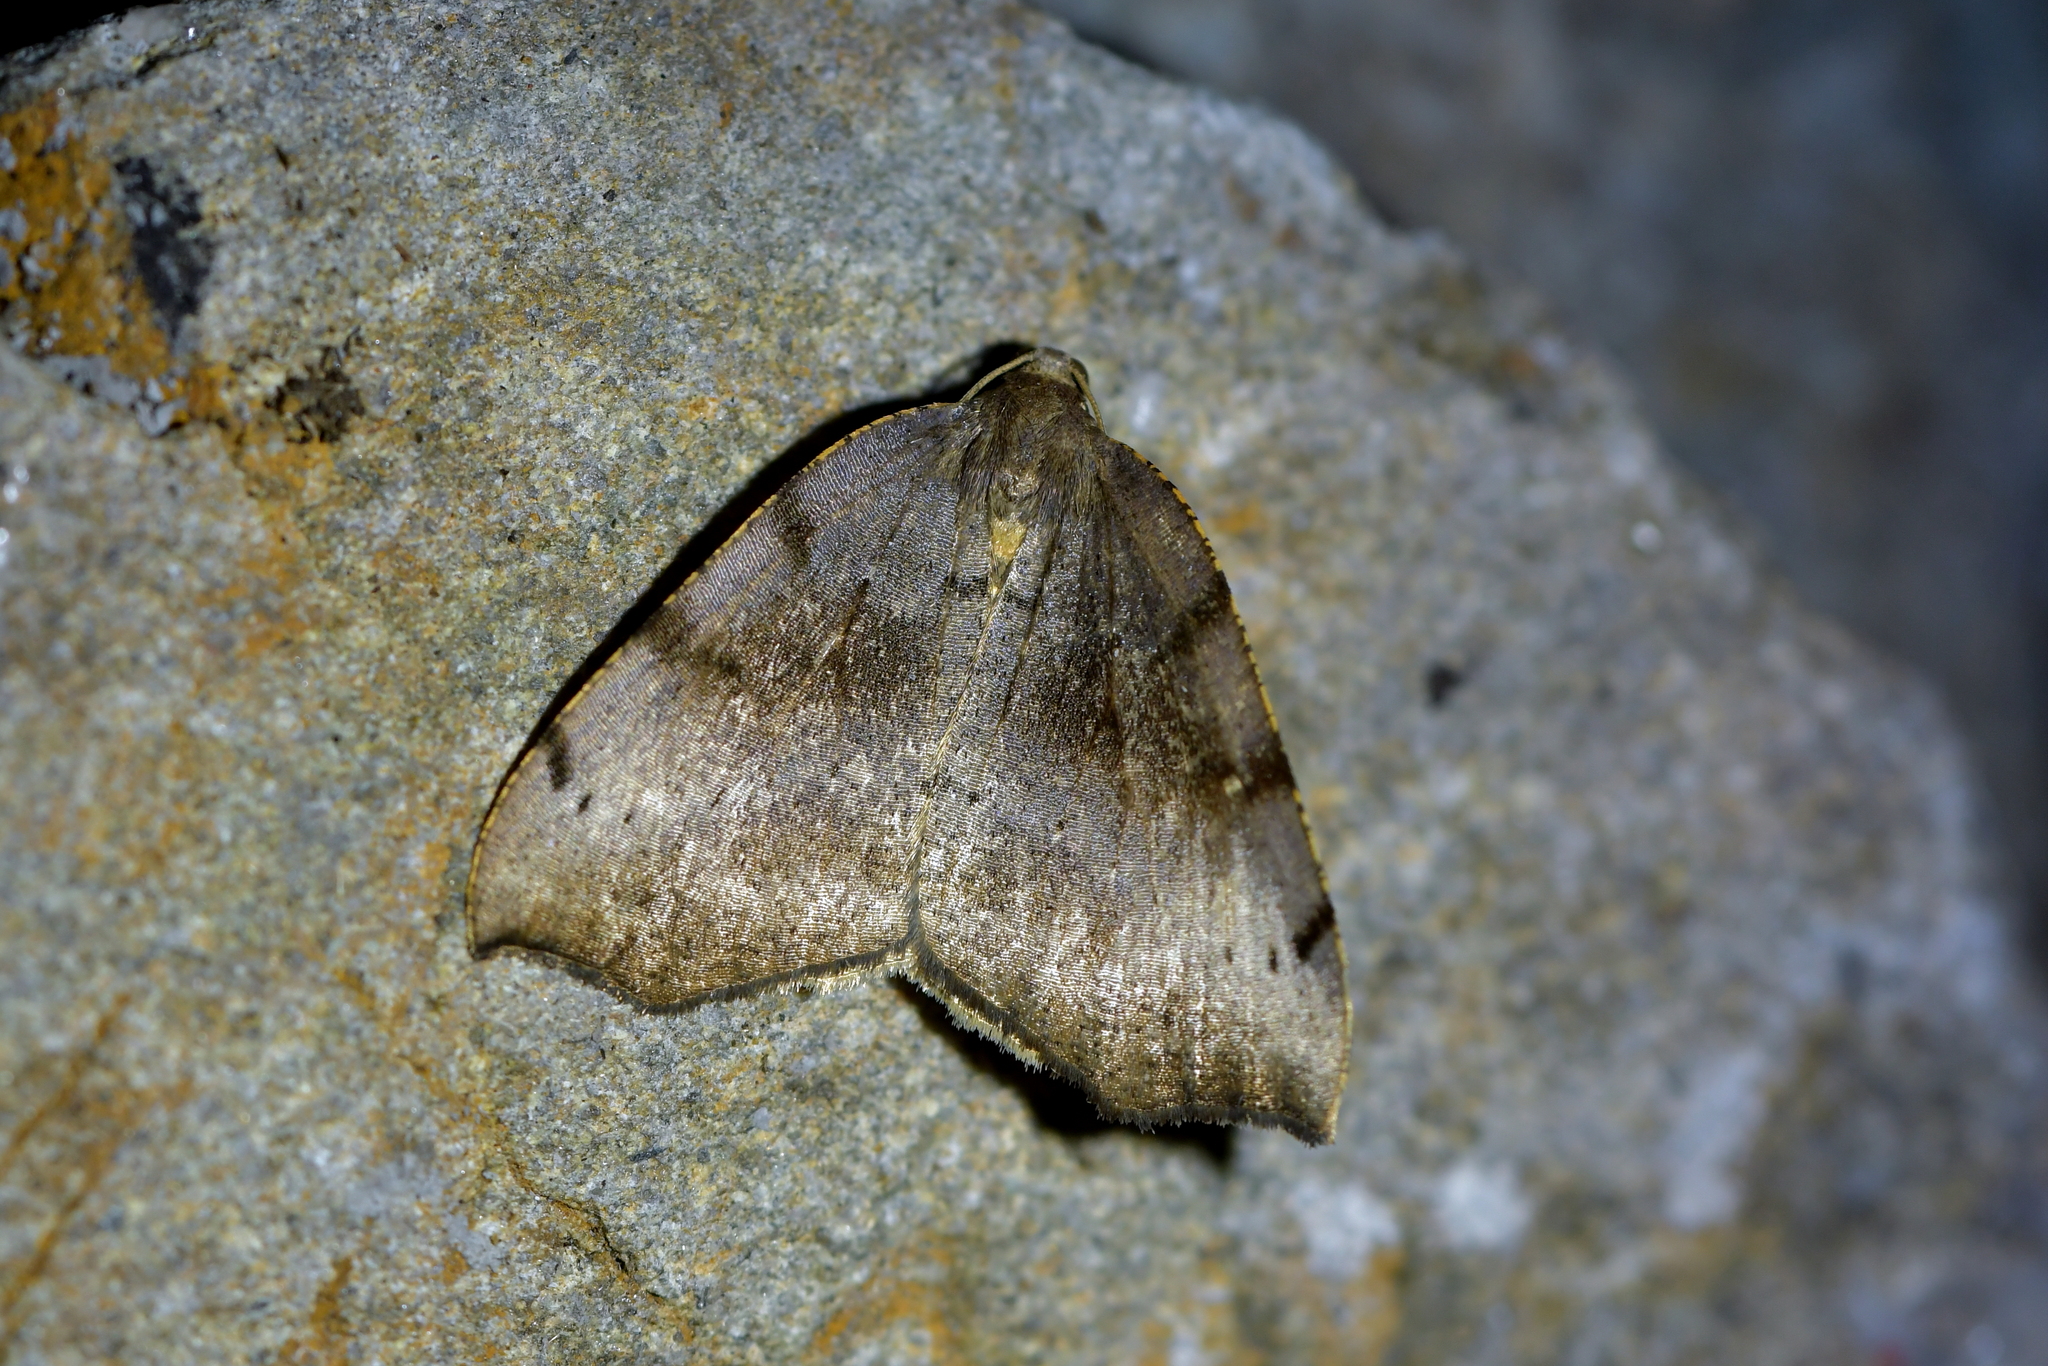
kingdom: Animalia
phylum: Arthropoda
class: Insecta
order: Lepidoptera
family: Geometridae
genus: Sestra
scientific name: Sestra flexata
